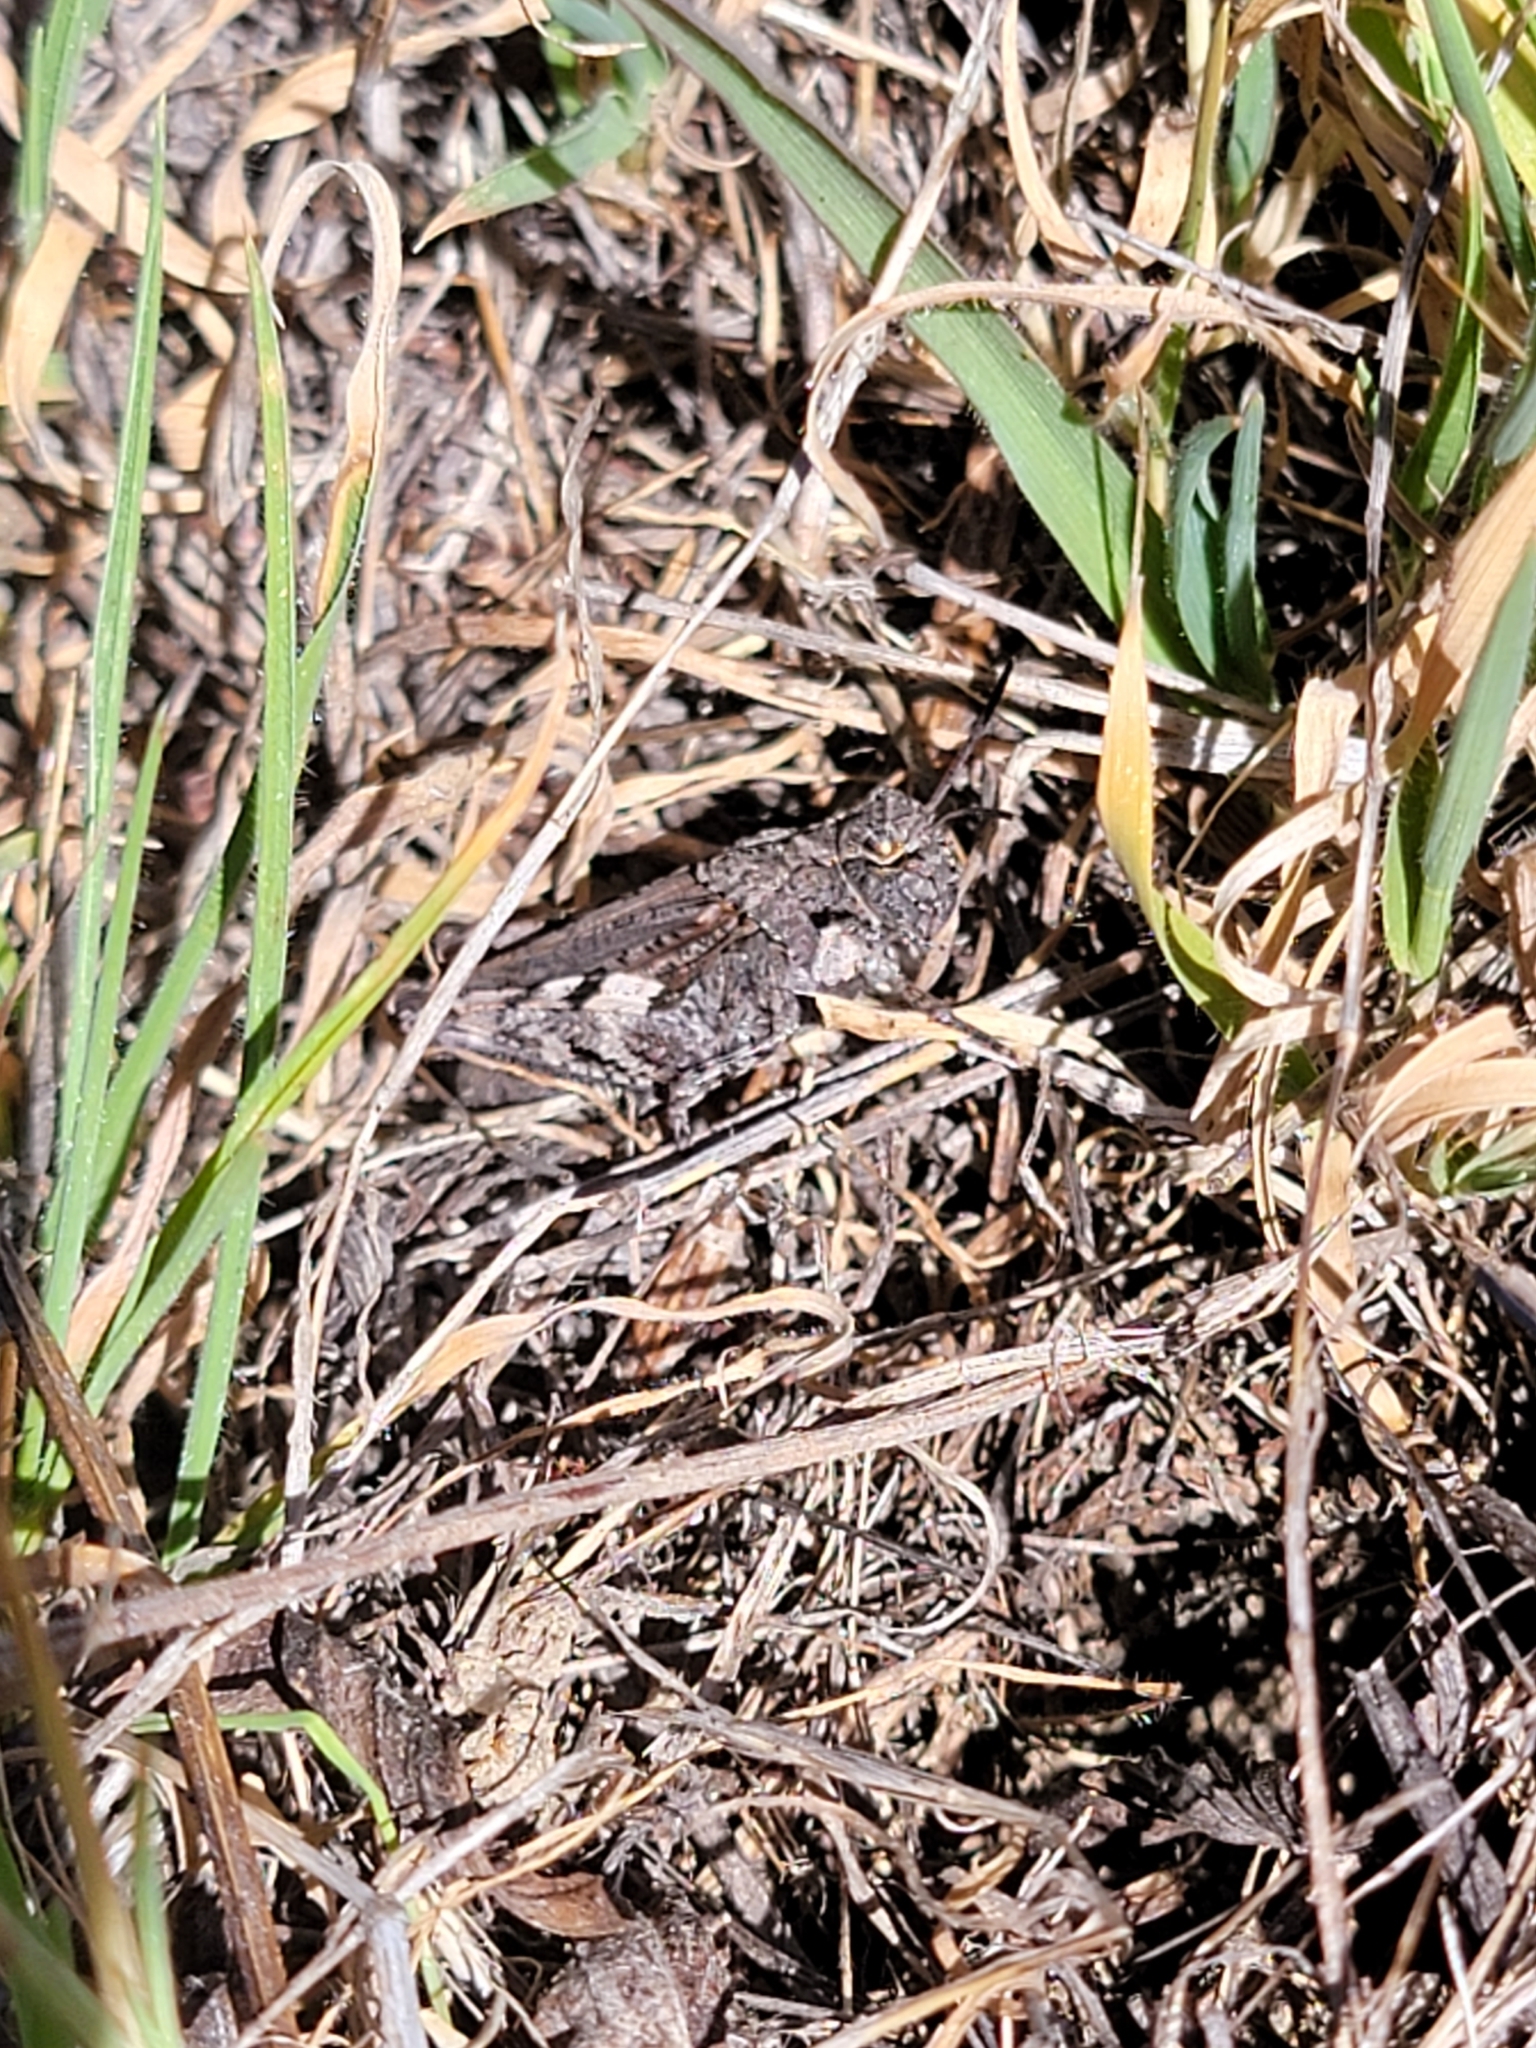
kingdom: Animalia
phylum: Arthropoda
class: Insecta
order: Orthoptera
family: Acrididae
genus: Chimarocephala
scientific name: Chimarocephala pacifica
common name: Painted meadow grasshopper
